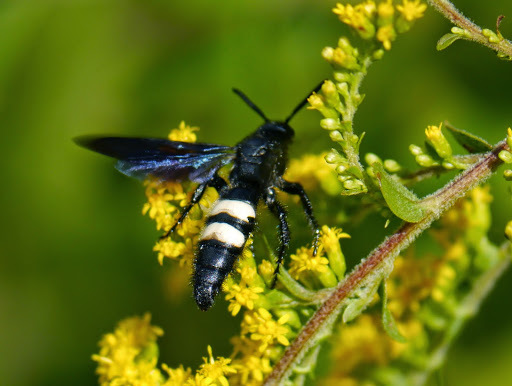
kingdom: Animalia
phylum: Arthropoda
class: Insecta
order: Hymenoptera
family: Scoliidae
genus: Scolia
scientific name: Scolia bicincta
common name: Double-banded scoliid wasp
